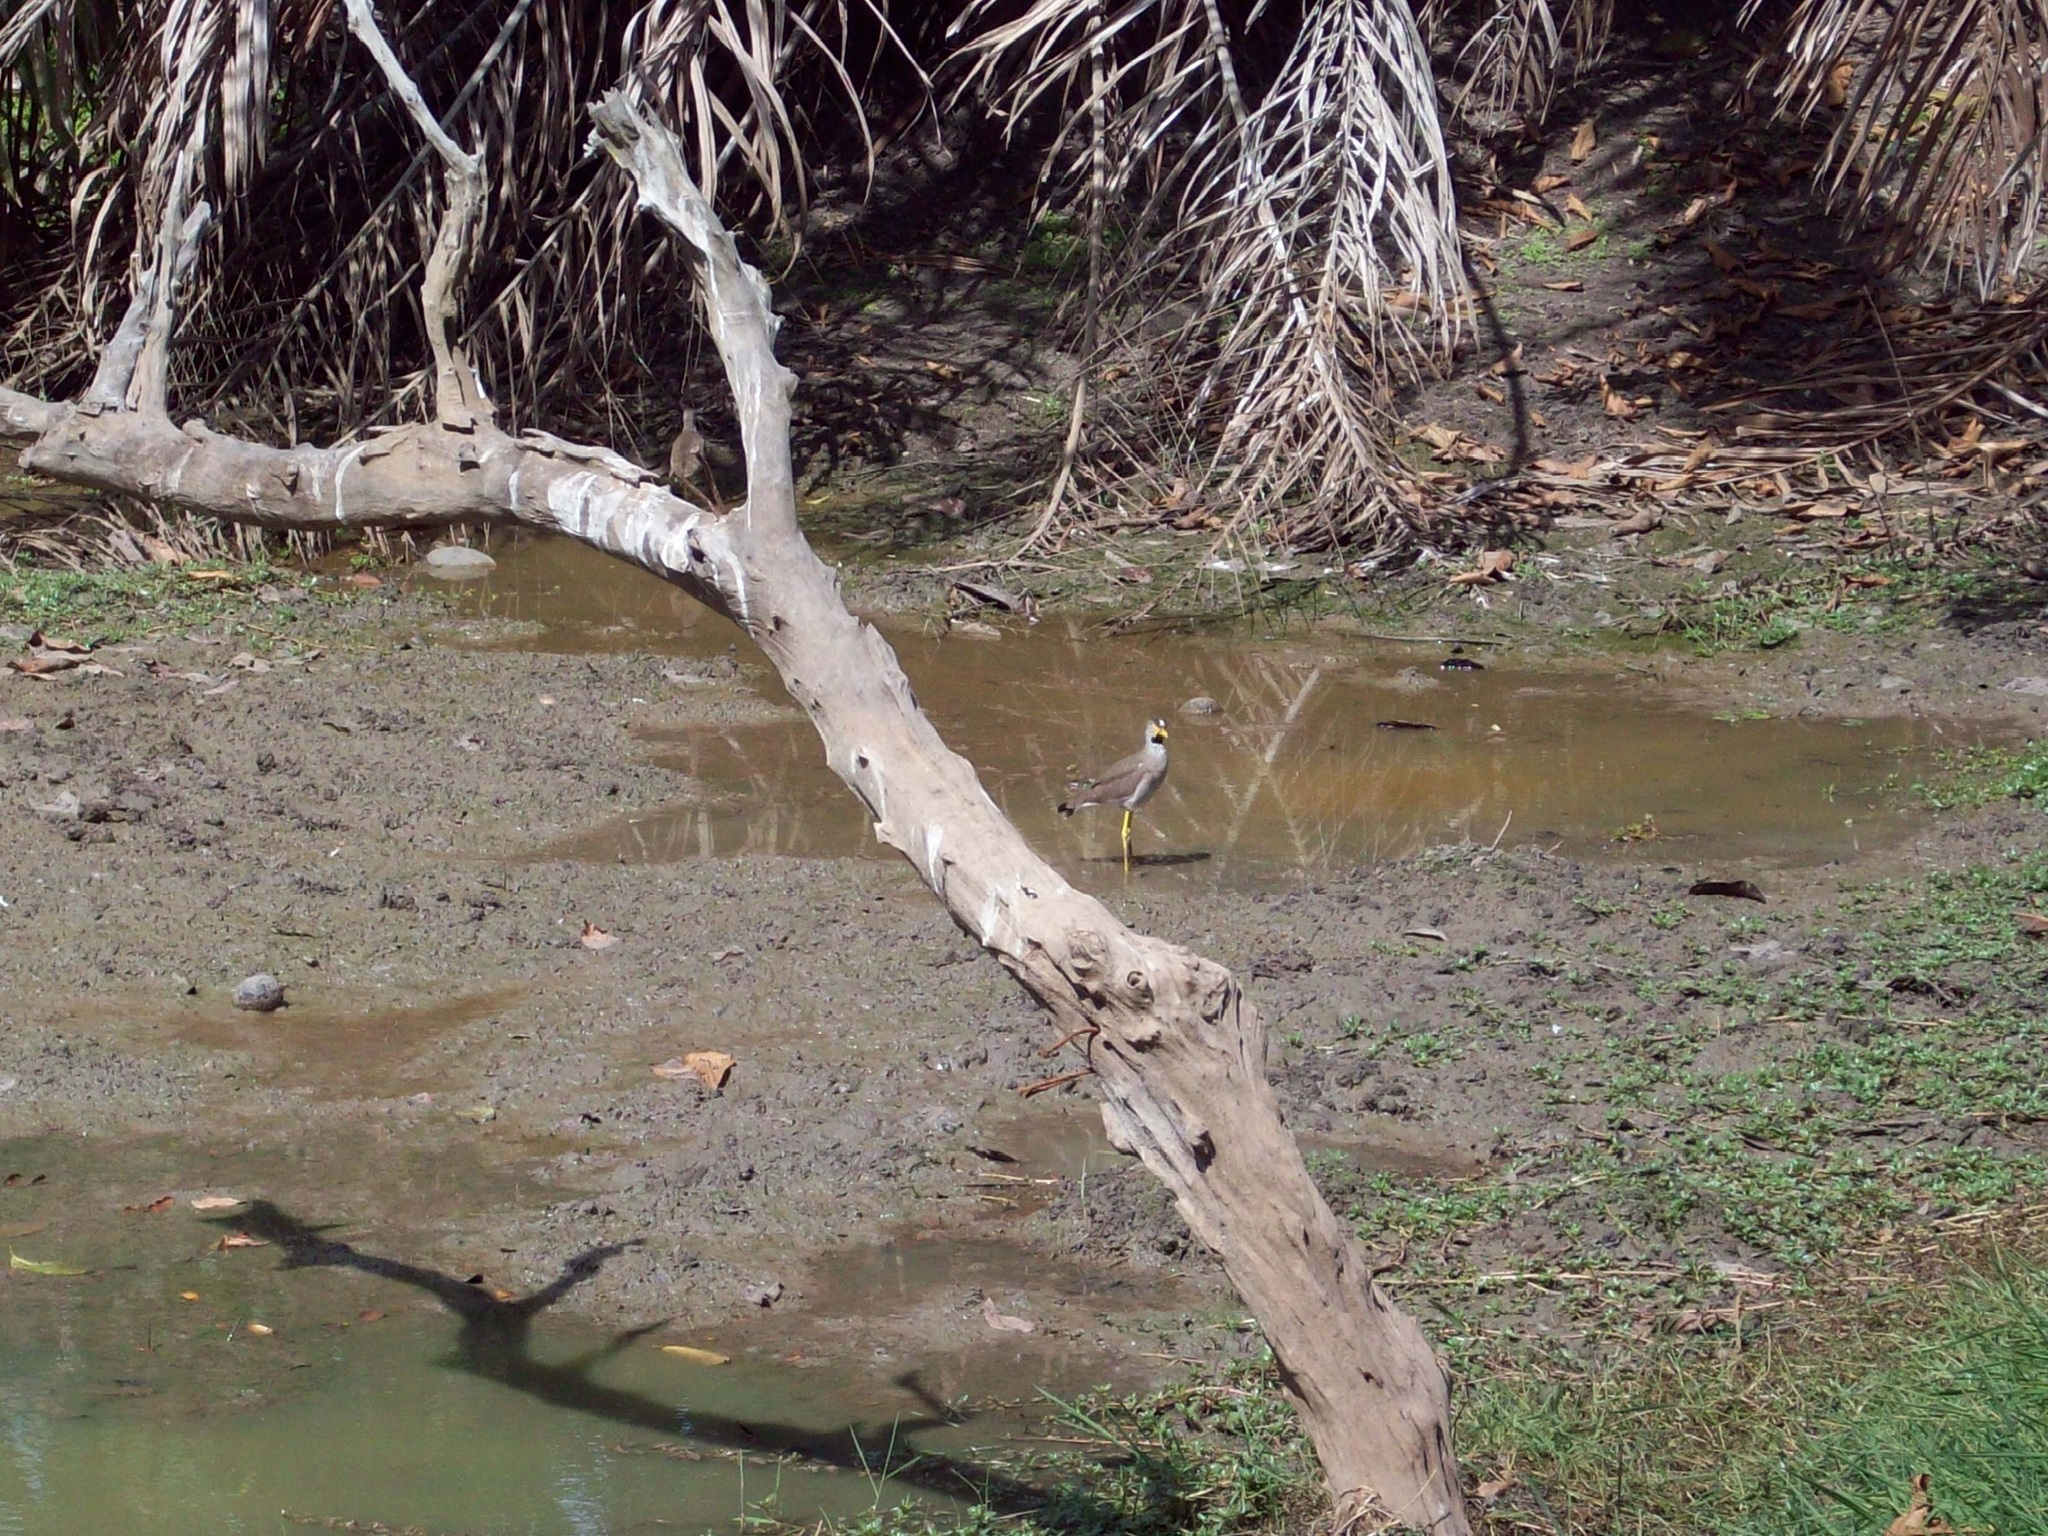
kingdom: Animalia
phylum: Chordata
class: Aves
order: Charadriiformes
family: Charadriidae
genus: Vanellus
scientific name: Vanellus senegallus
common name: African wattled lapwing
